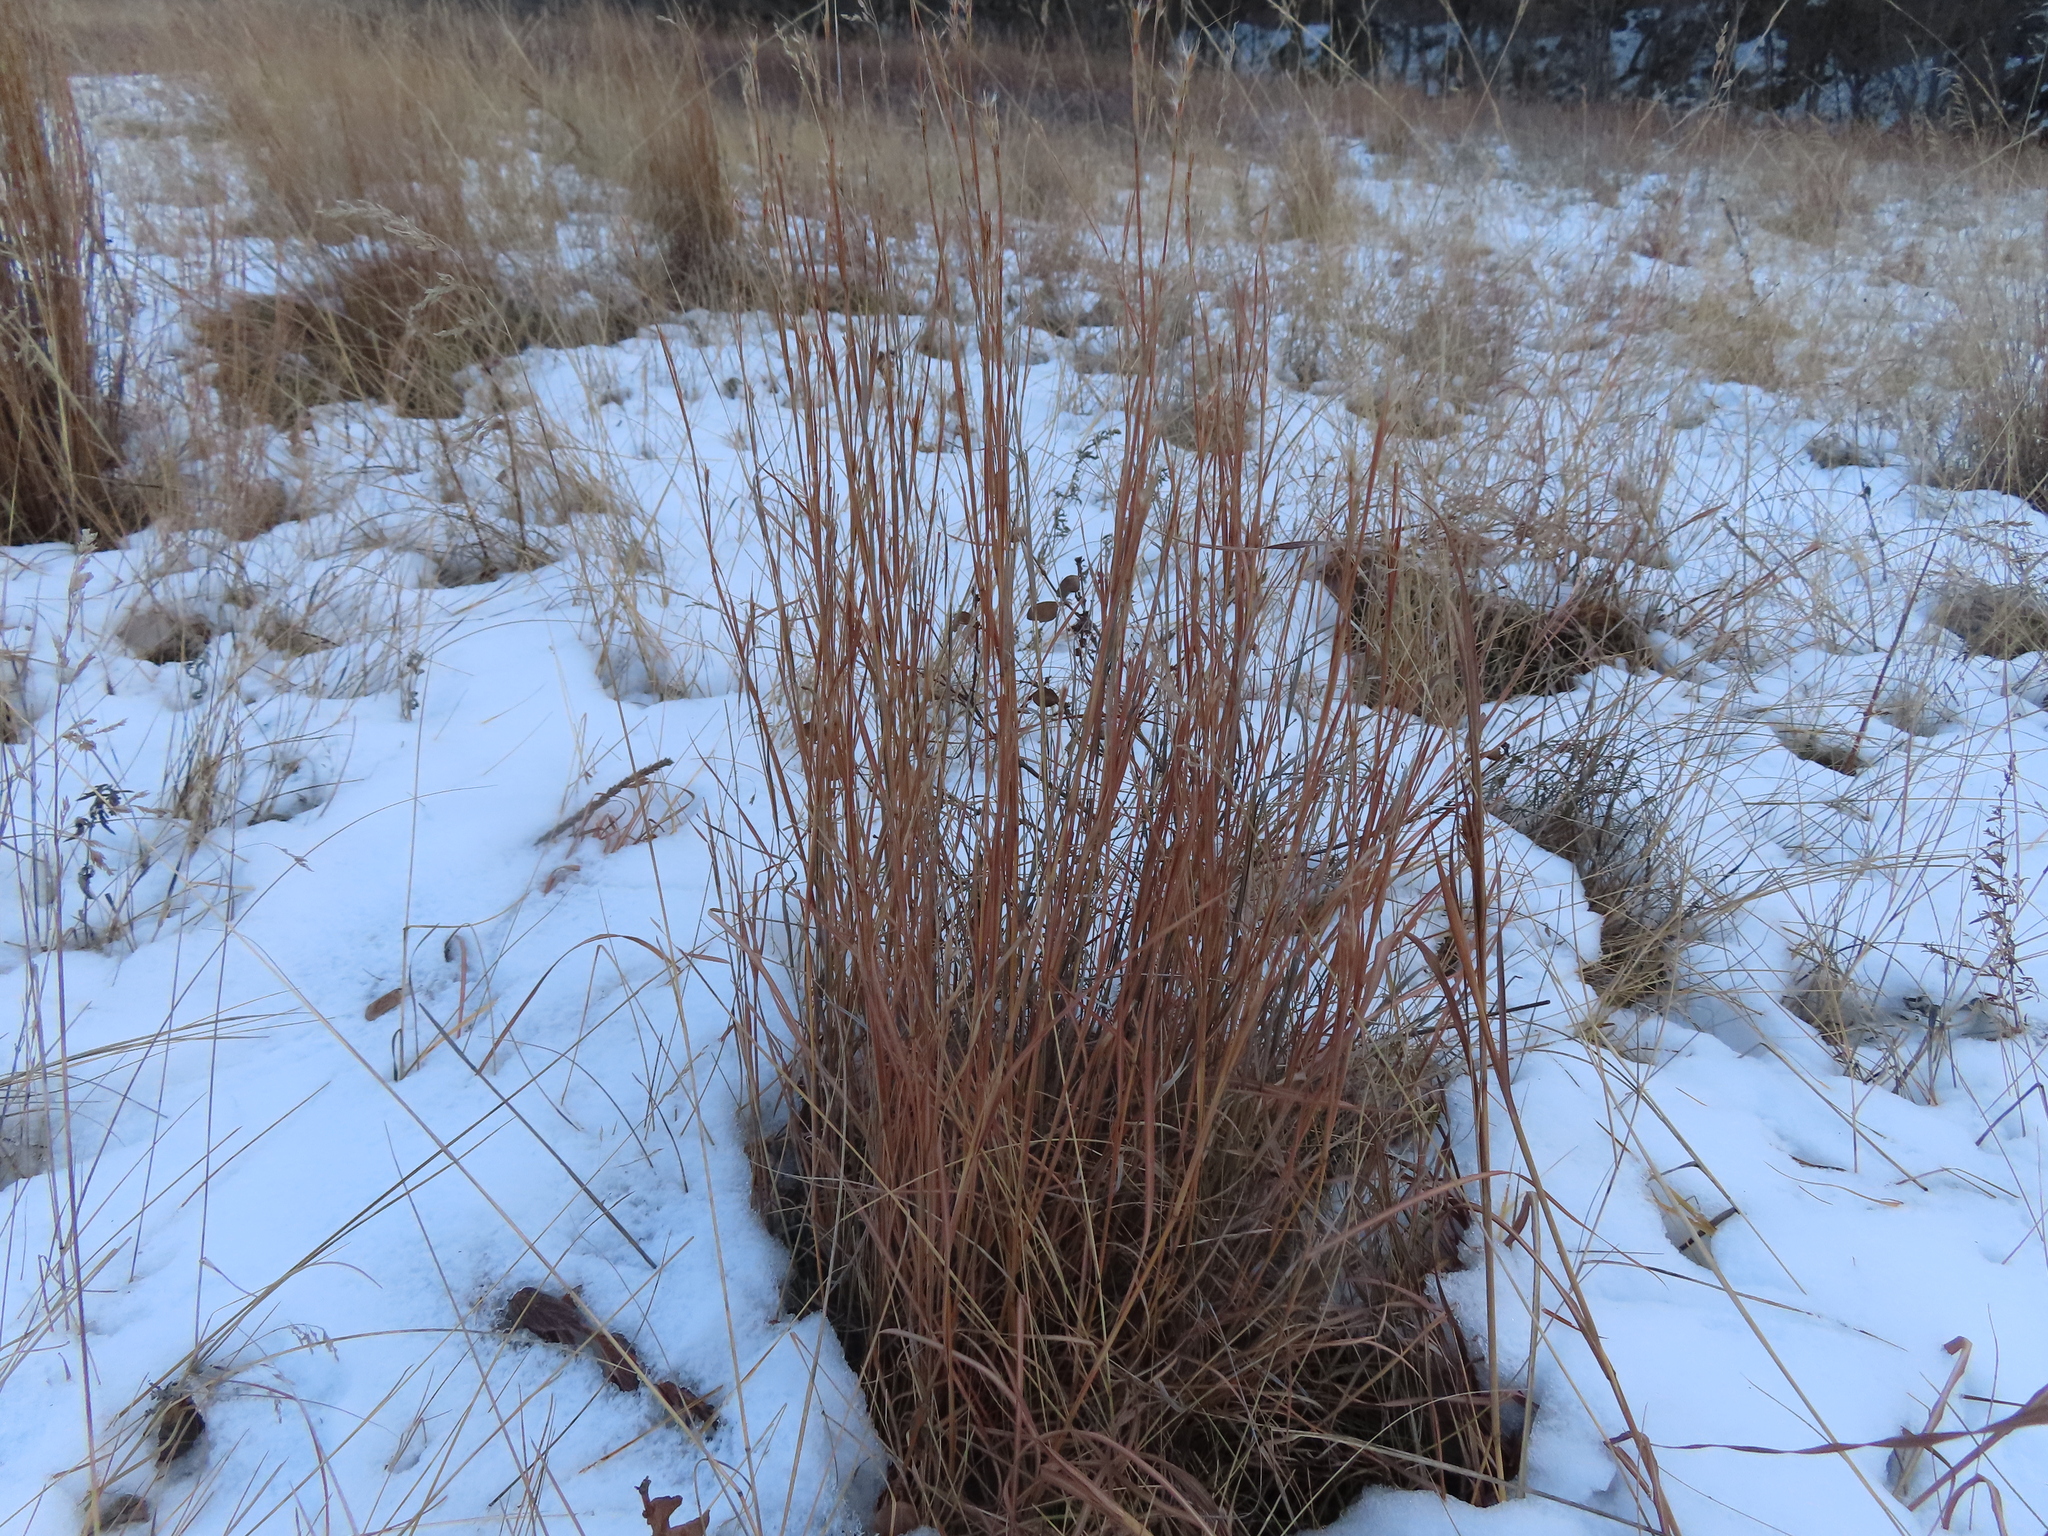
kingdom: Plantae
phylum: Tracheophyta
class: Liliopsida
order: Poales
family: Poaceae
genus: Schizachyrium
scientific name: Schizachyrium scoparium
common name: Little bluestem
